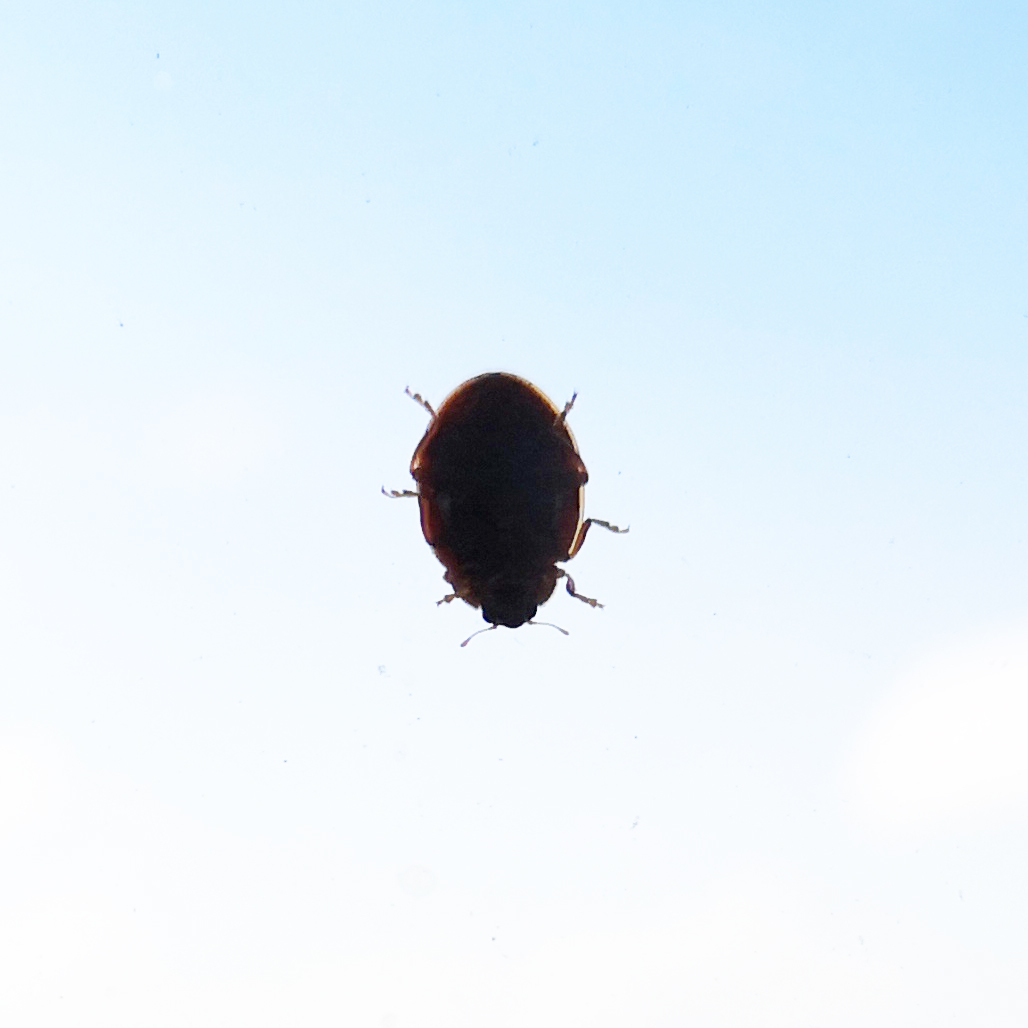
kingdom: Animalia
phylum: Arthropoda
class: Insecta
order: Coleoptera
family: Coccinellidae
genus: Harmonia
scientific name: Harmonia quadripunctata
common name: Cream-streaked ladybird
